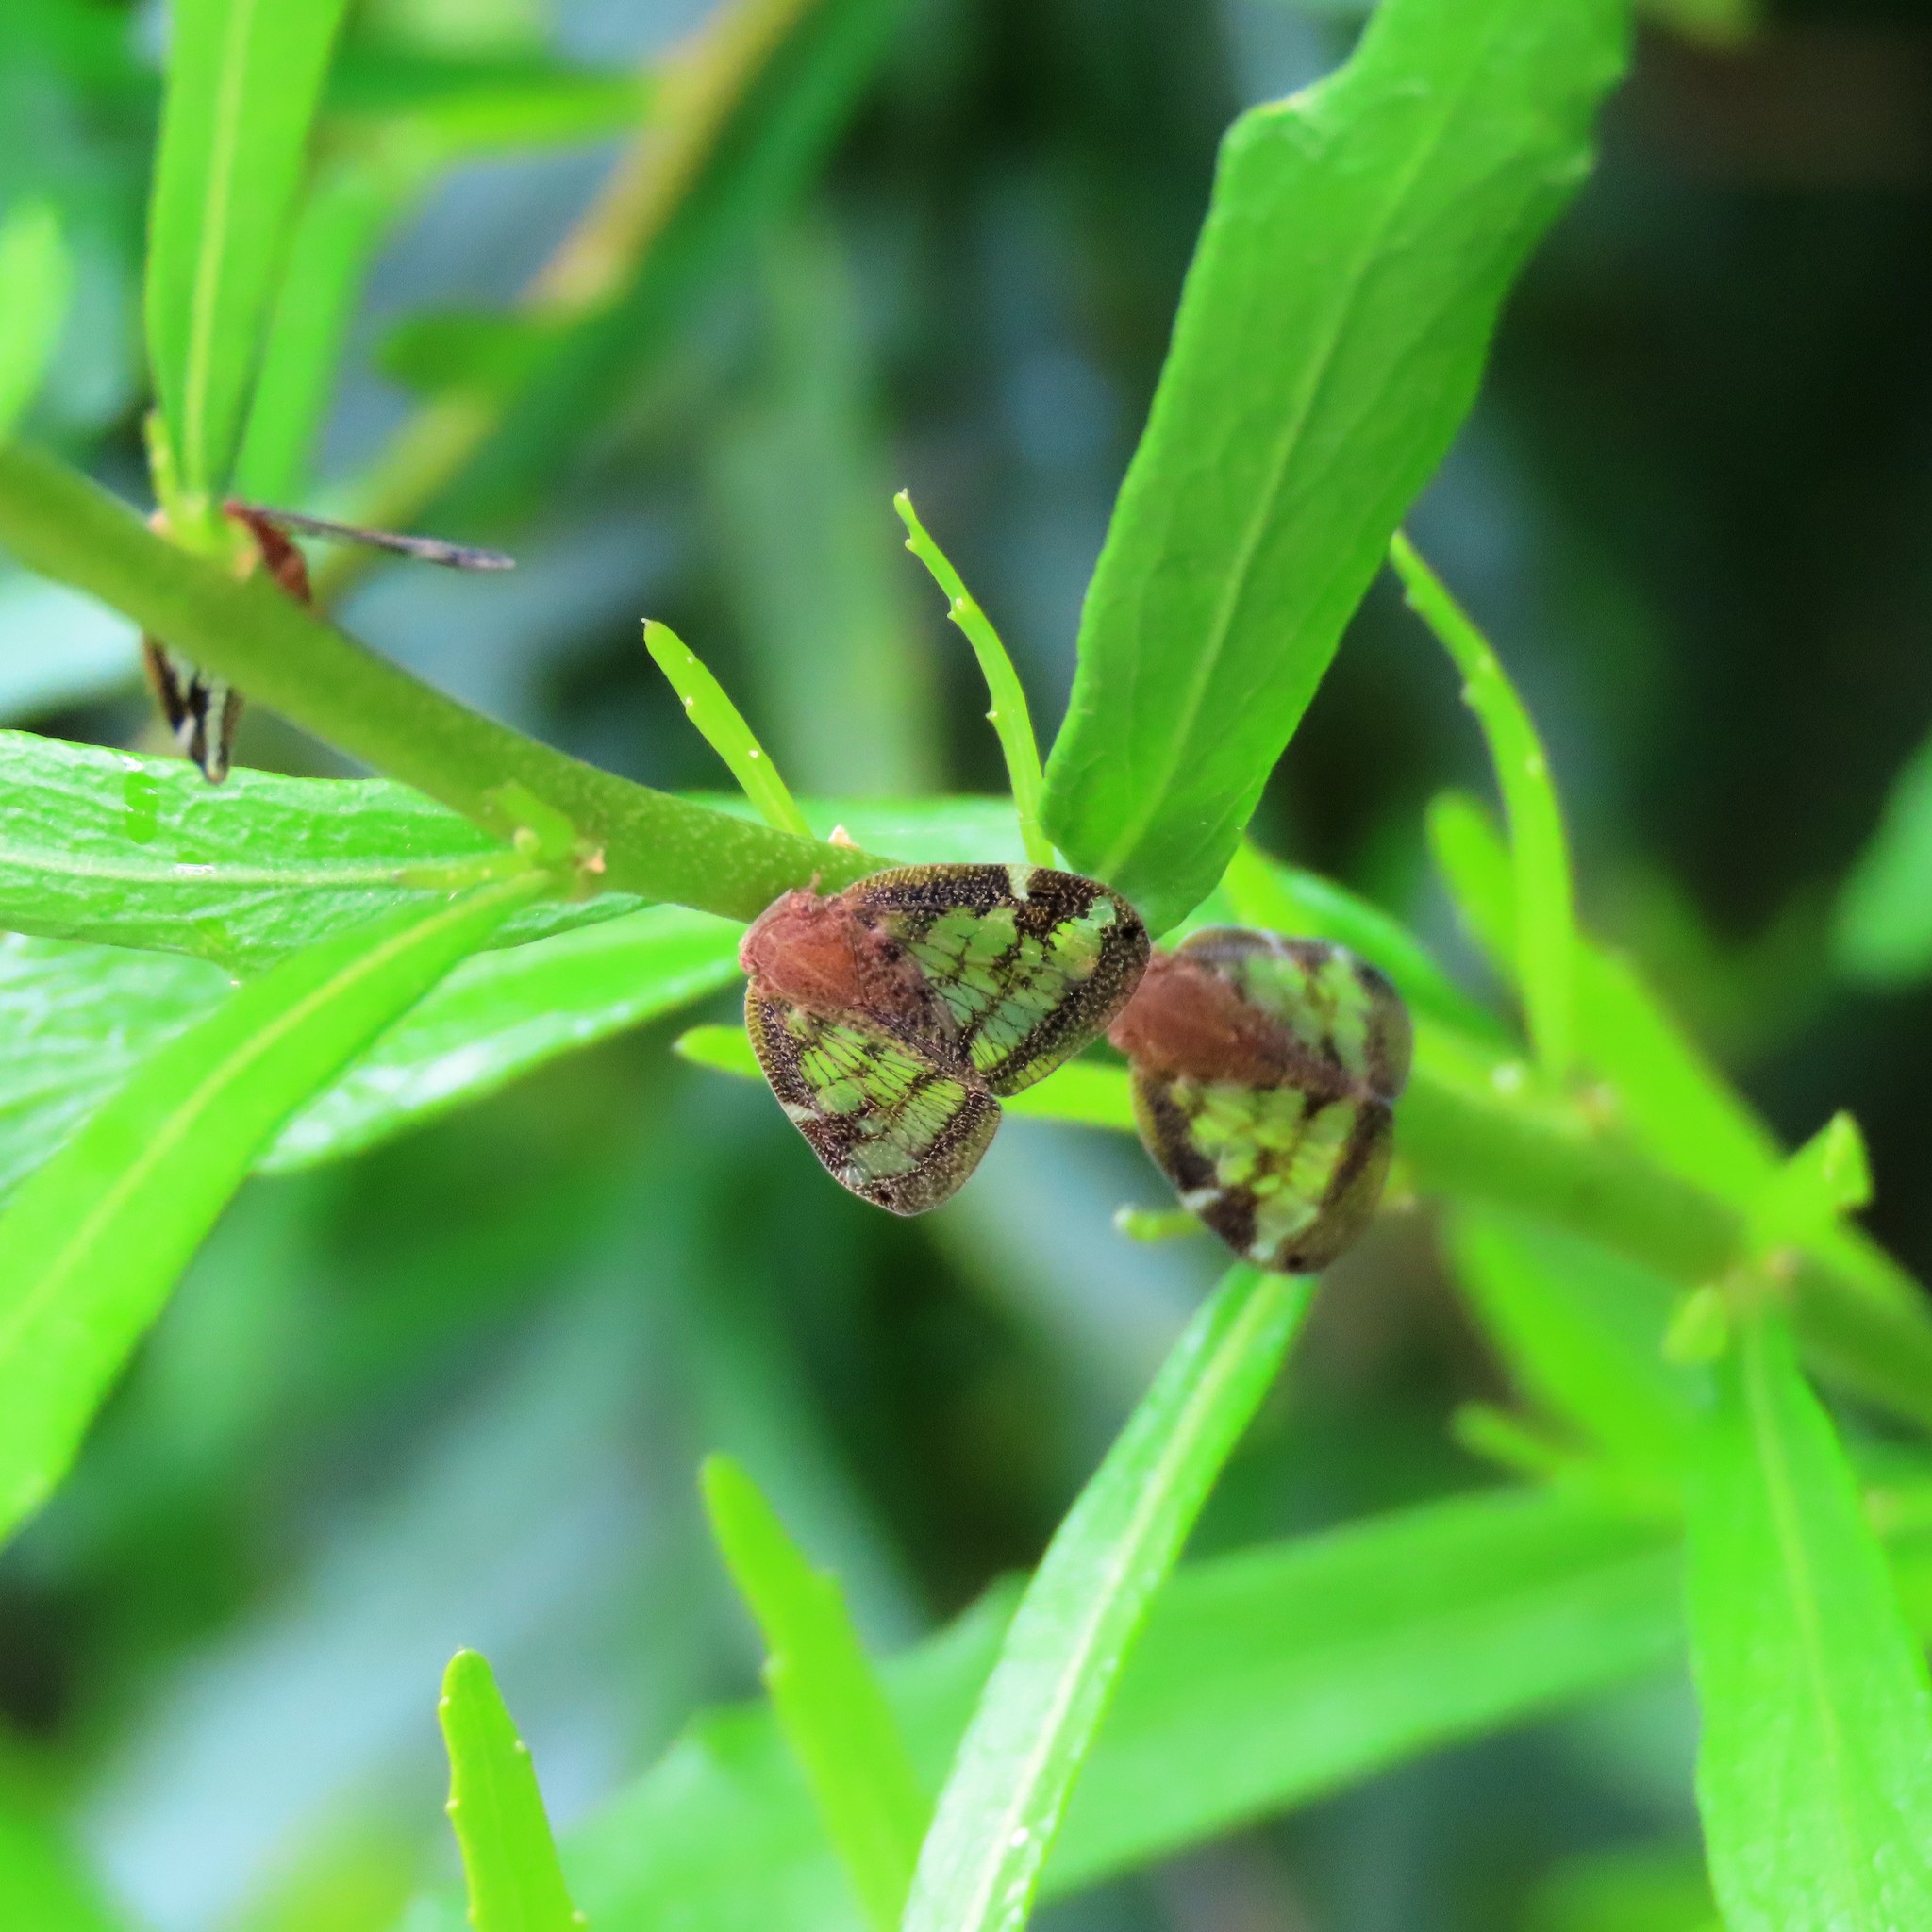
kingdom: Animalia
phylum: Arthropoda
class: Insecta
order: Hemiptera
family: Ricaniidae
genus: Scolypopa
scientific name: Scolypopa australis
